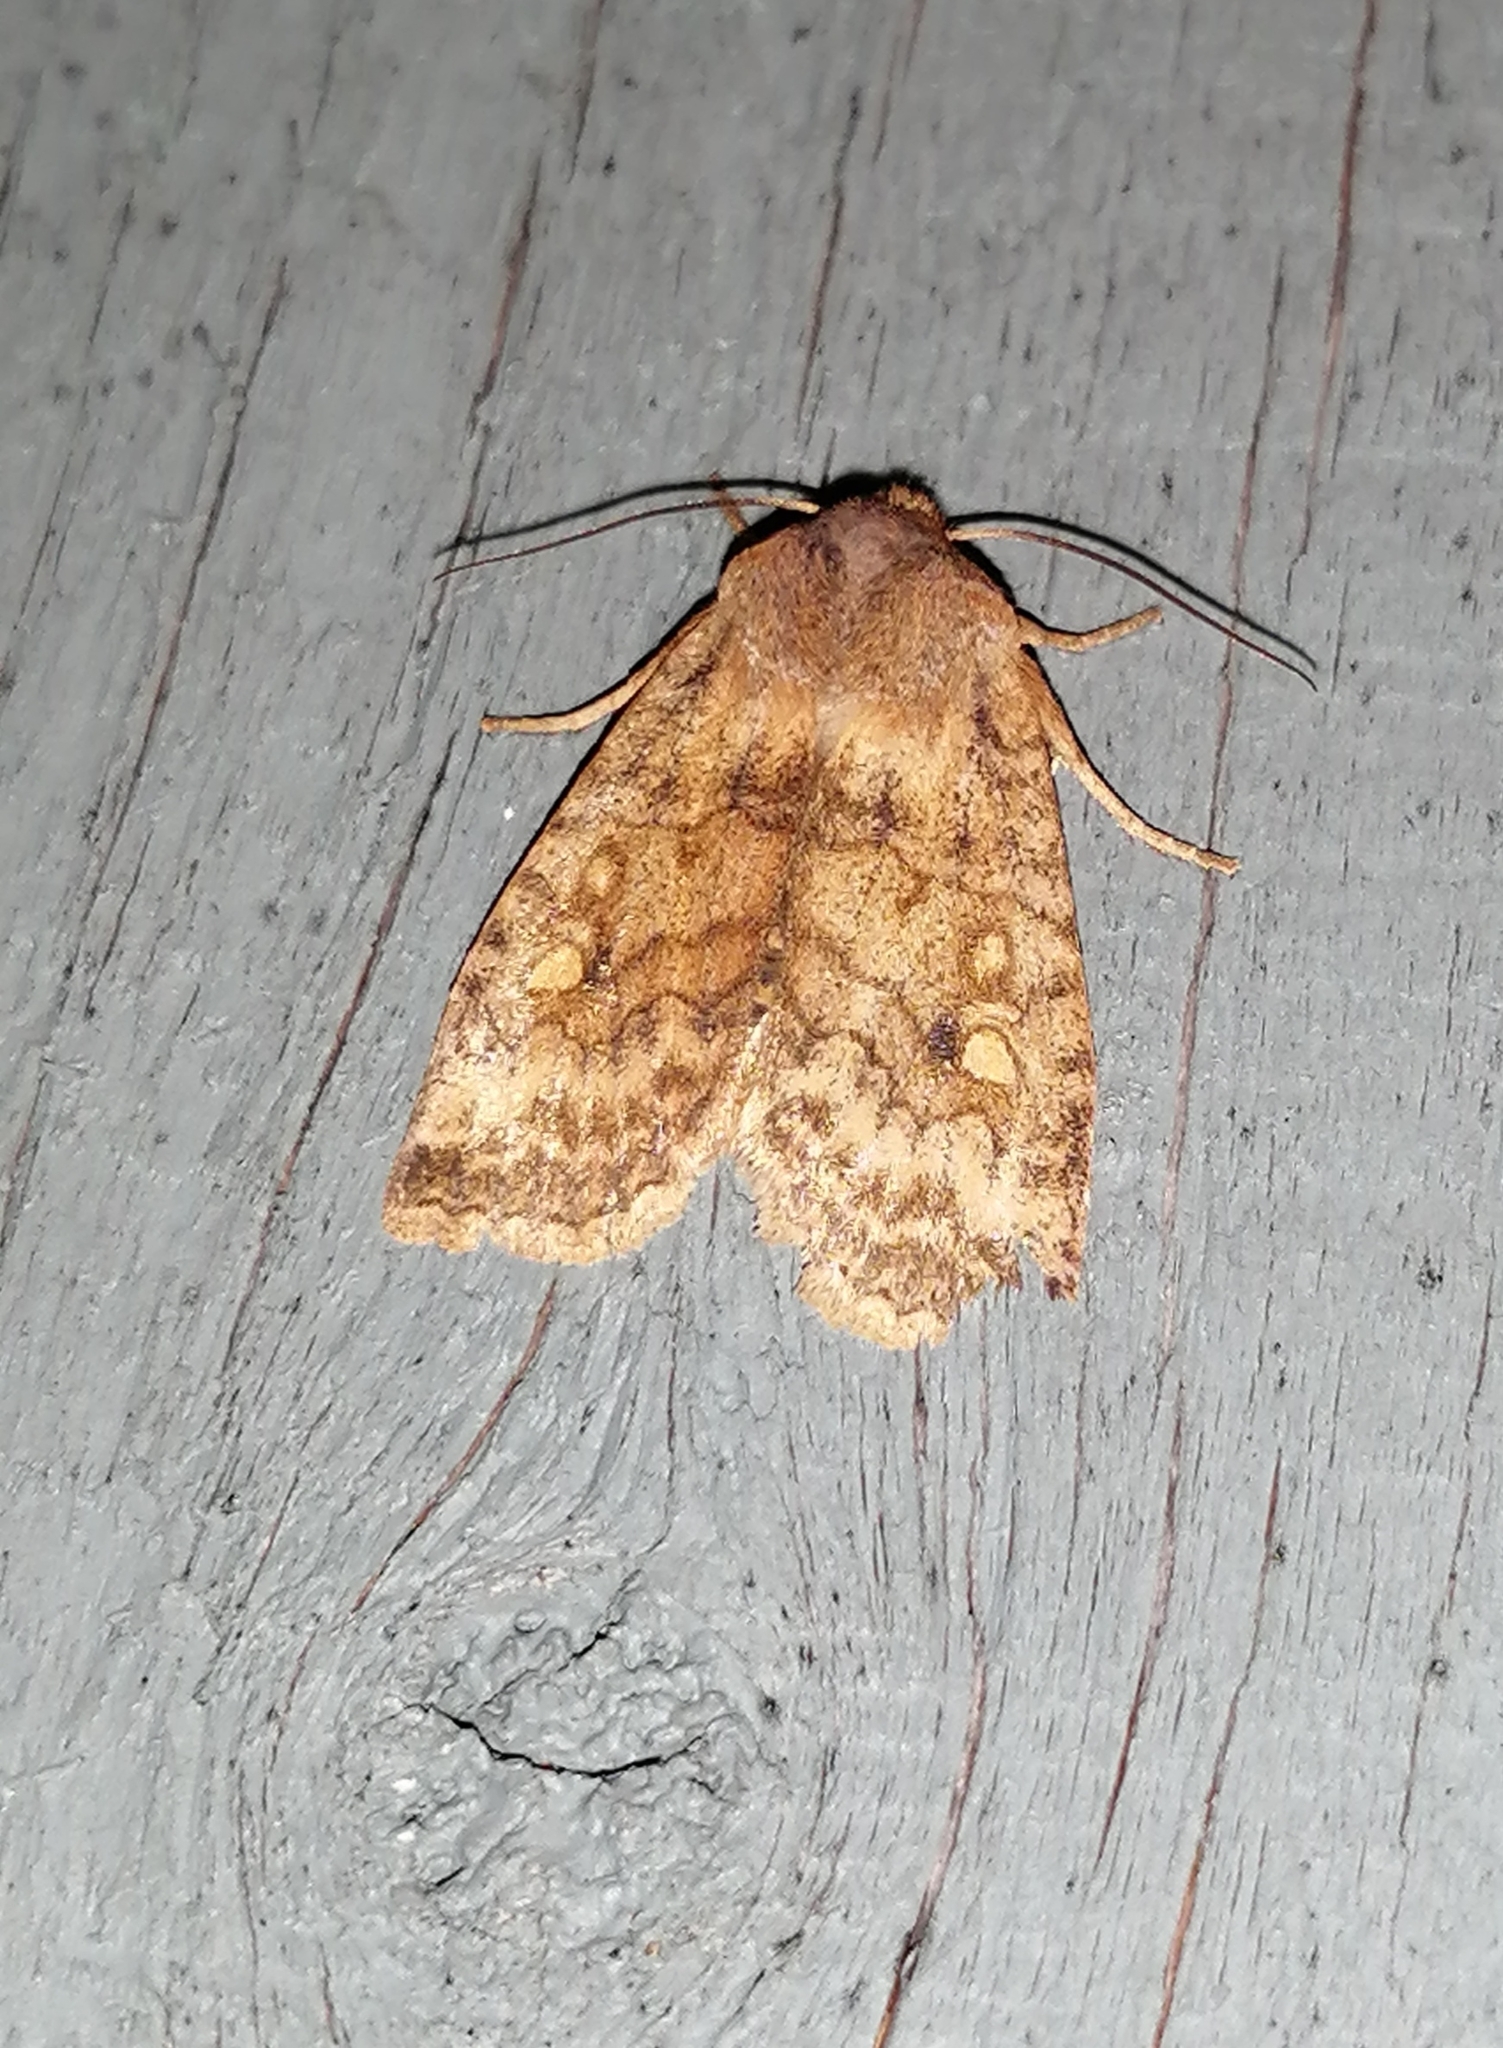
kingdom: Animalia
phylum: Arthropoda
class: Insecta
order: Lepidoptera
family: Noctuidae
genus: Eupsilia
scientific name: Eupsilia tristigmata
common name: Three-spotted sallow
